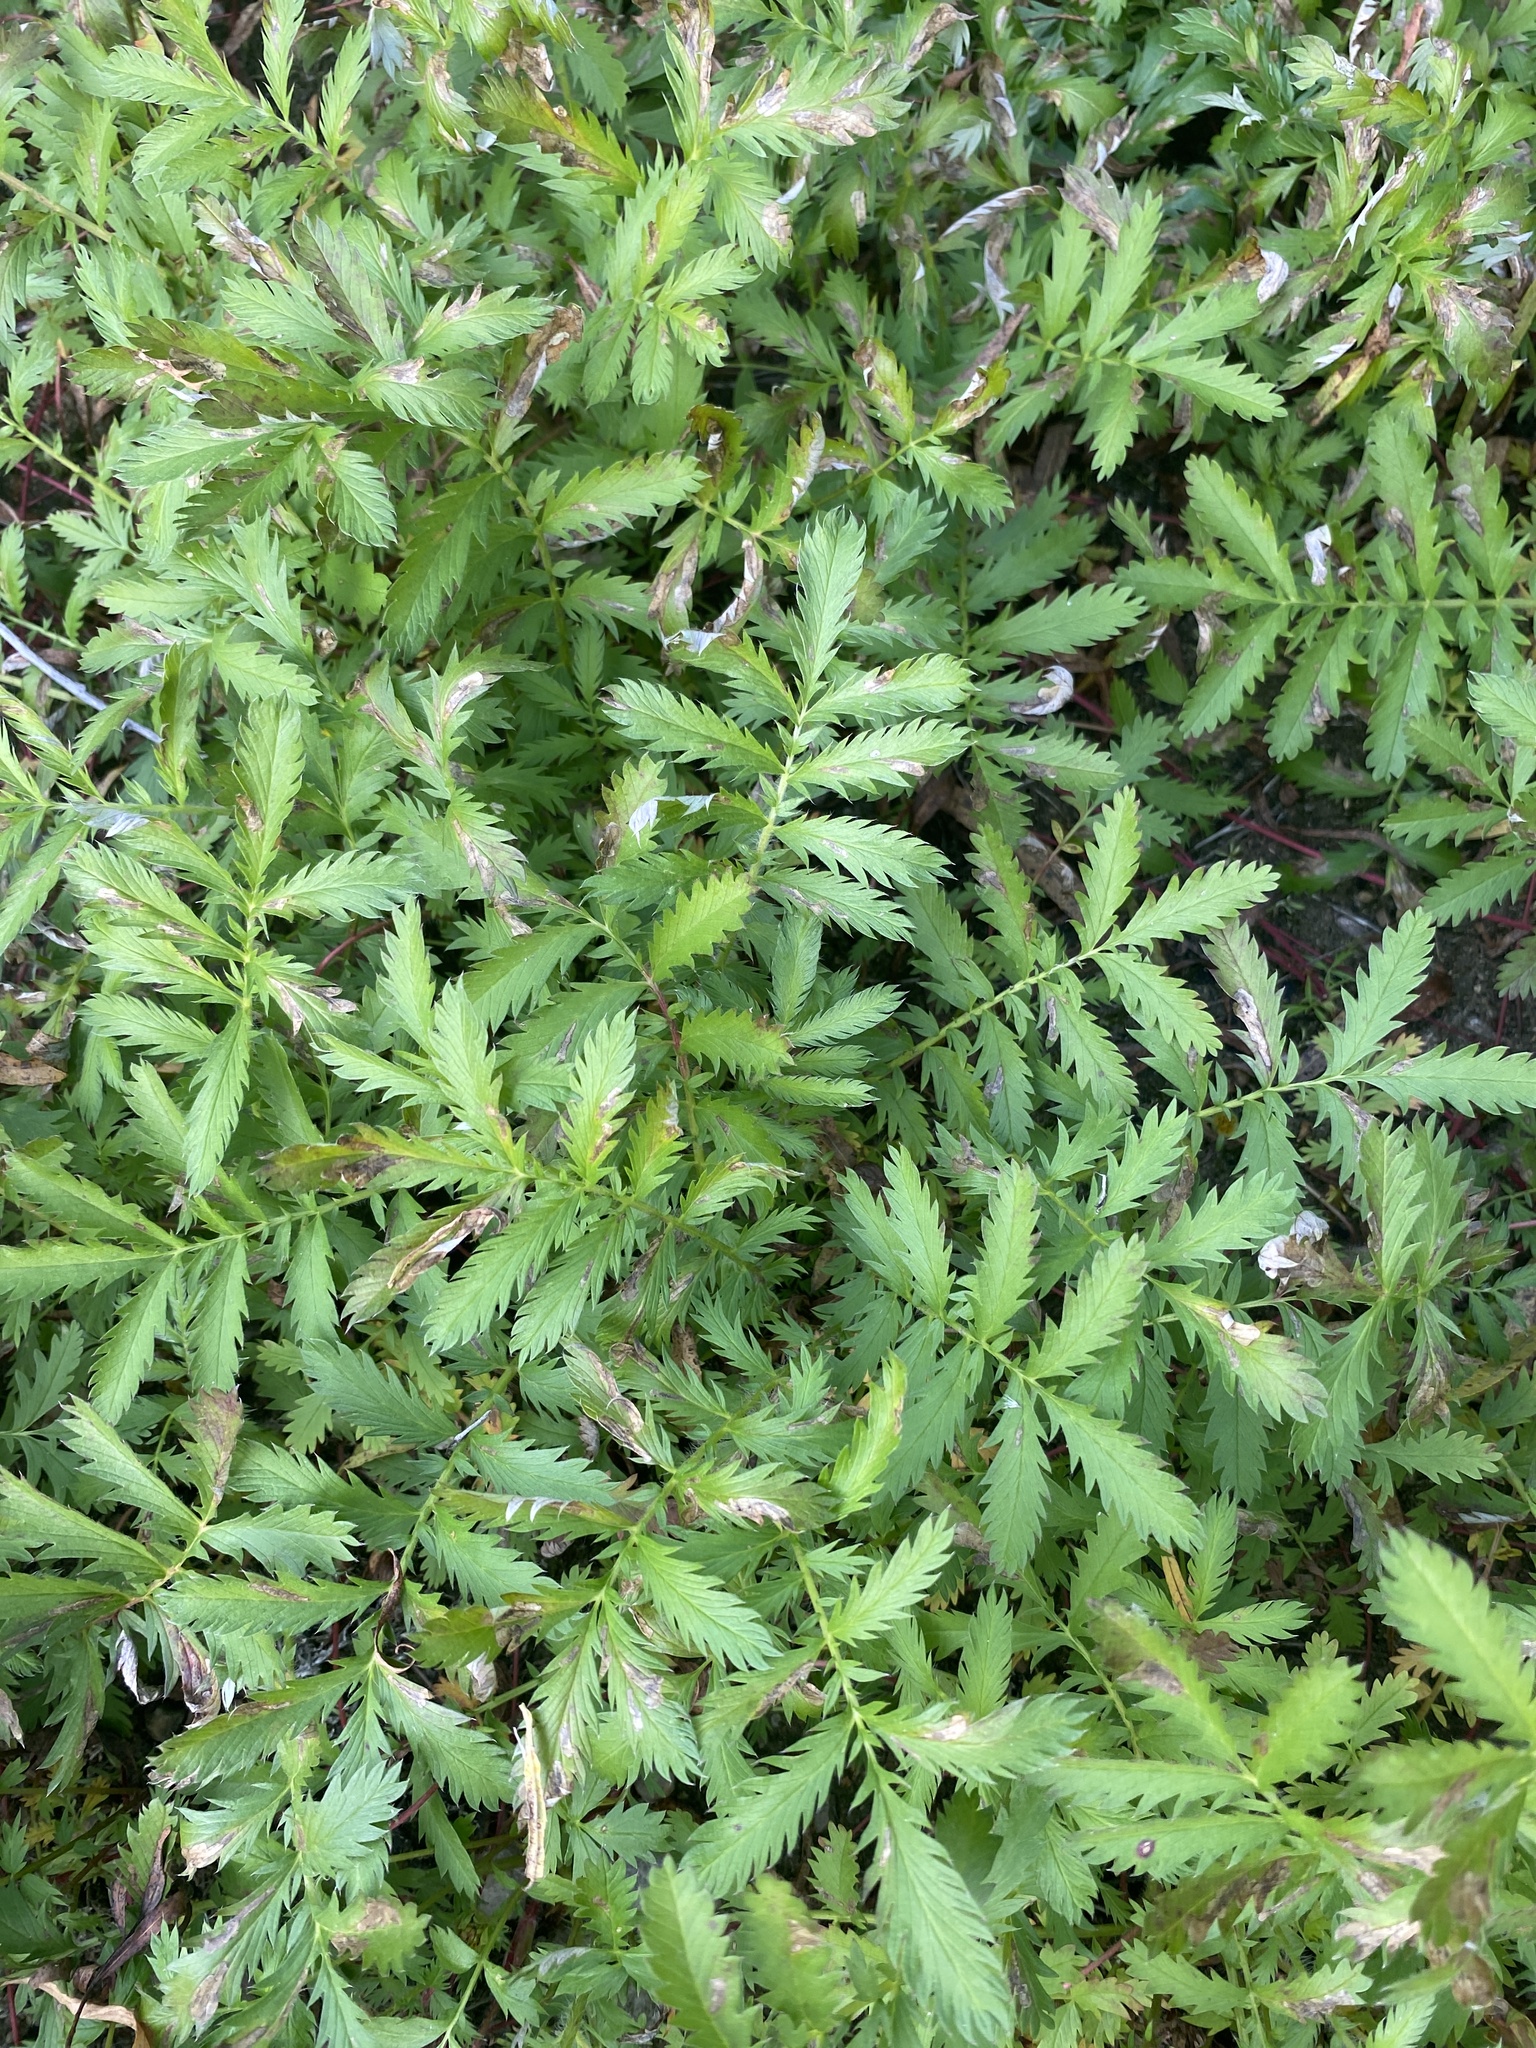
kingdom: Plantae
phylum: Tracheophyta
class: Magnoliopsida
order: Rosales
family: Rosaceae
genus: Argentina
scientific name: Argentina anserina
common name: Common silverweed
